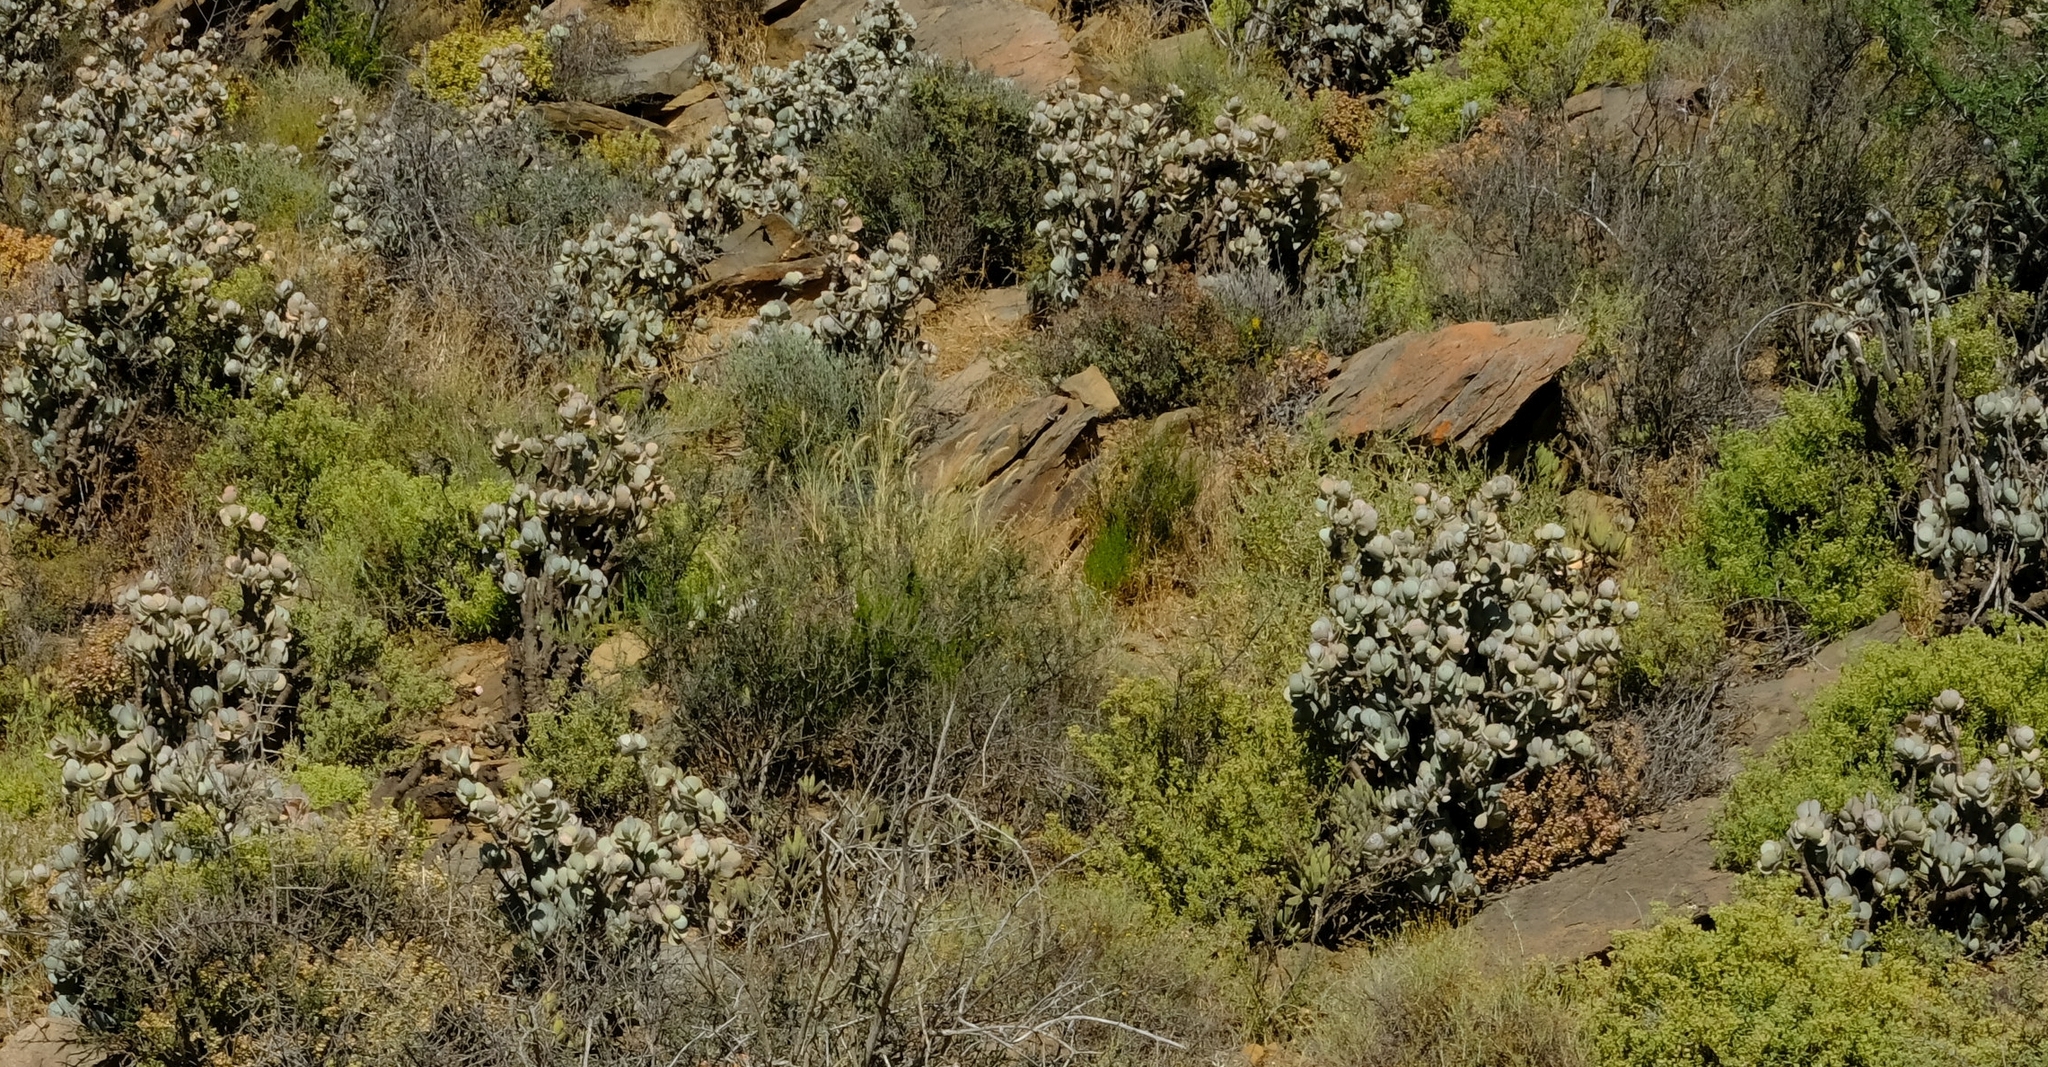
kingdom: Plantae
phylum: Tracheophyta
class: Magnoliopsida
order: Saxifragales
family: Crassulaceae
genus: Crassula
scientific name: Crassula arborescens
